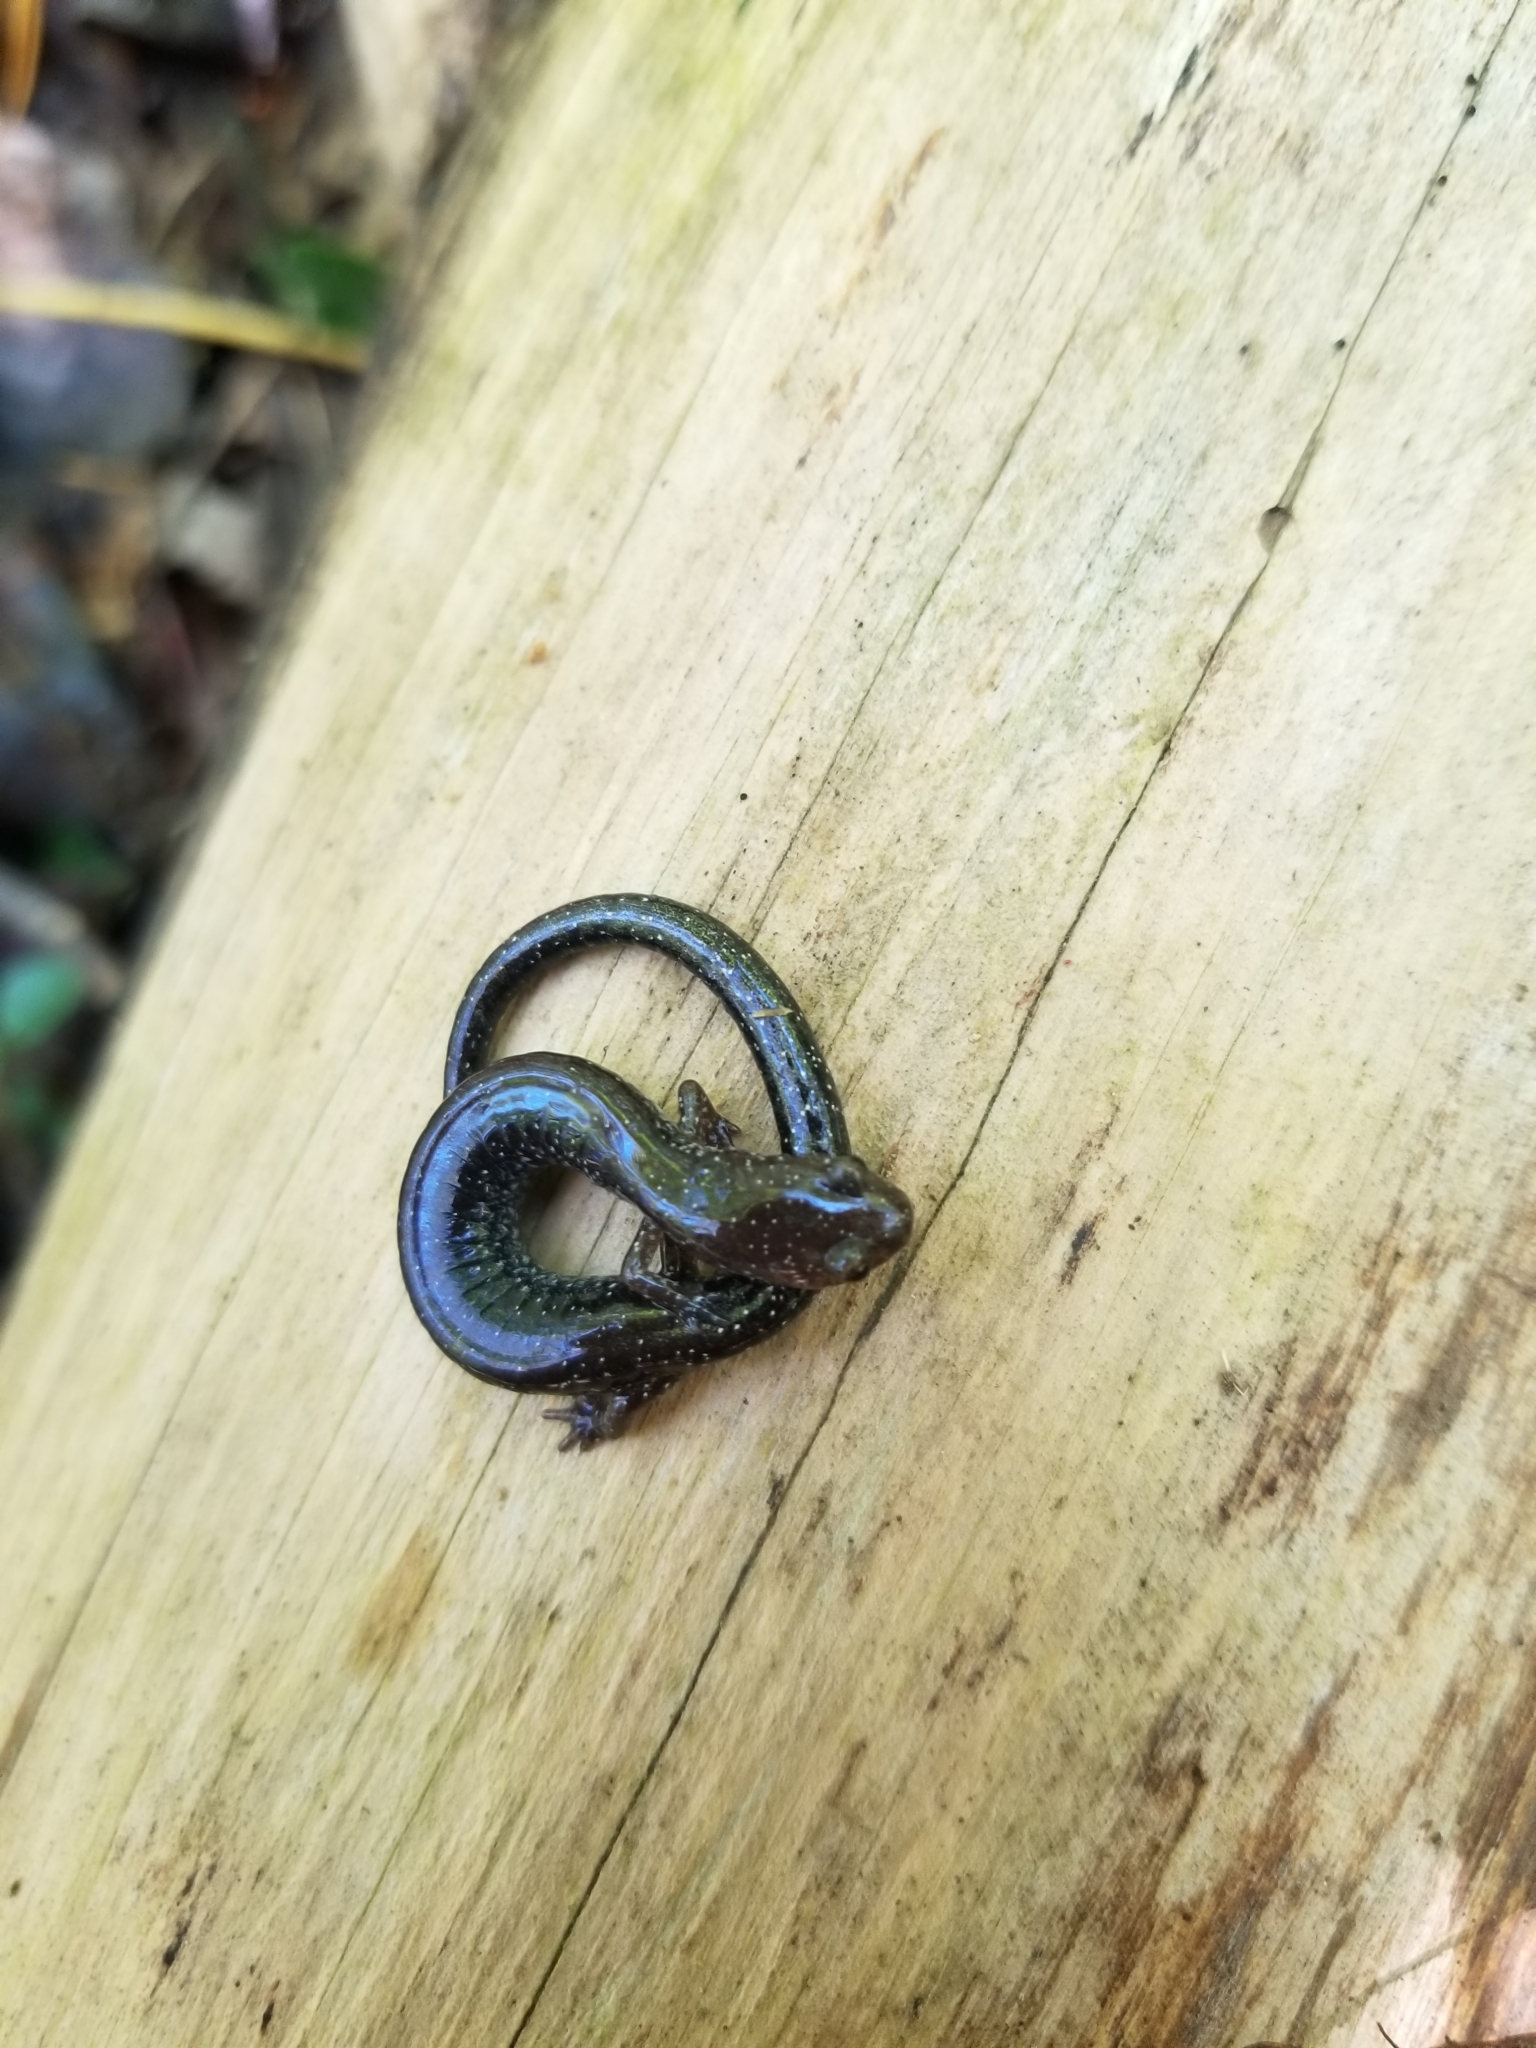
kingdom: Animalia
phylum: Chordata
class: Amphibia
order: Caudata
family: Plethodontidae
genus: Plethodon
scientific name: Plethodon cinereus
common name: Redback salamander
